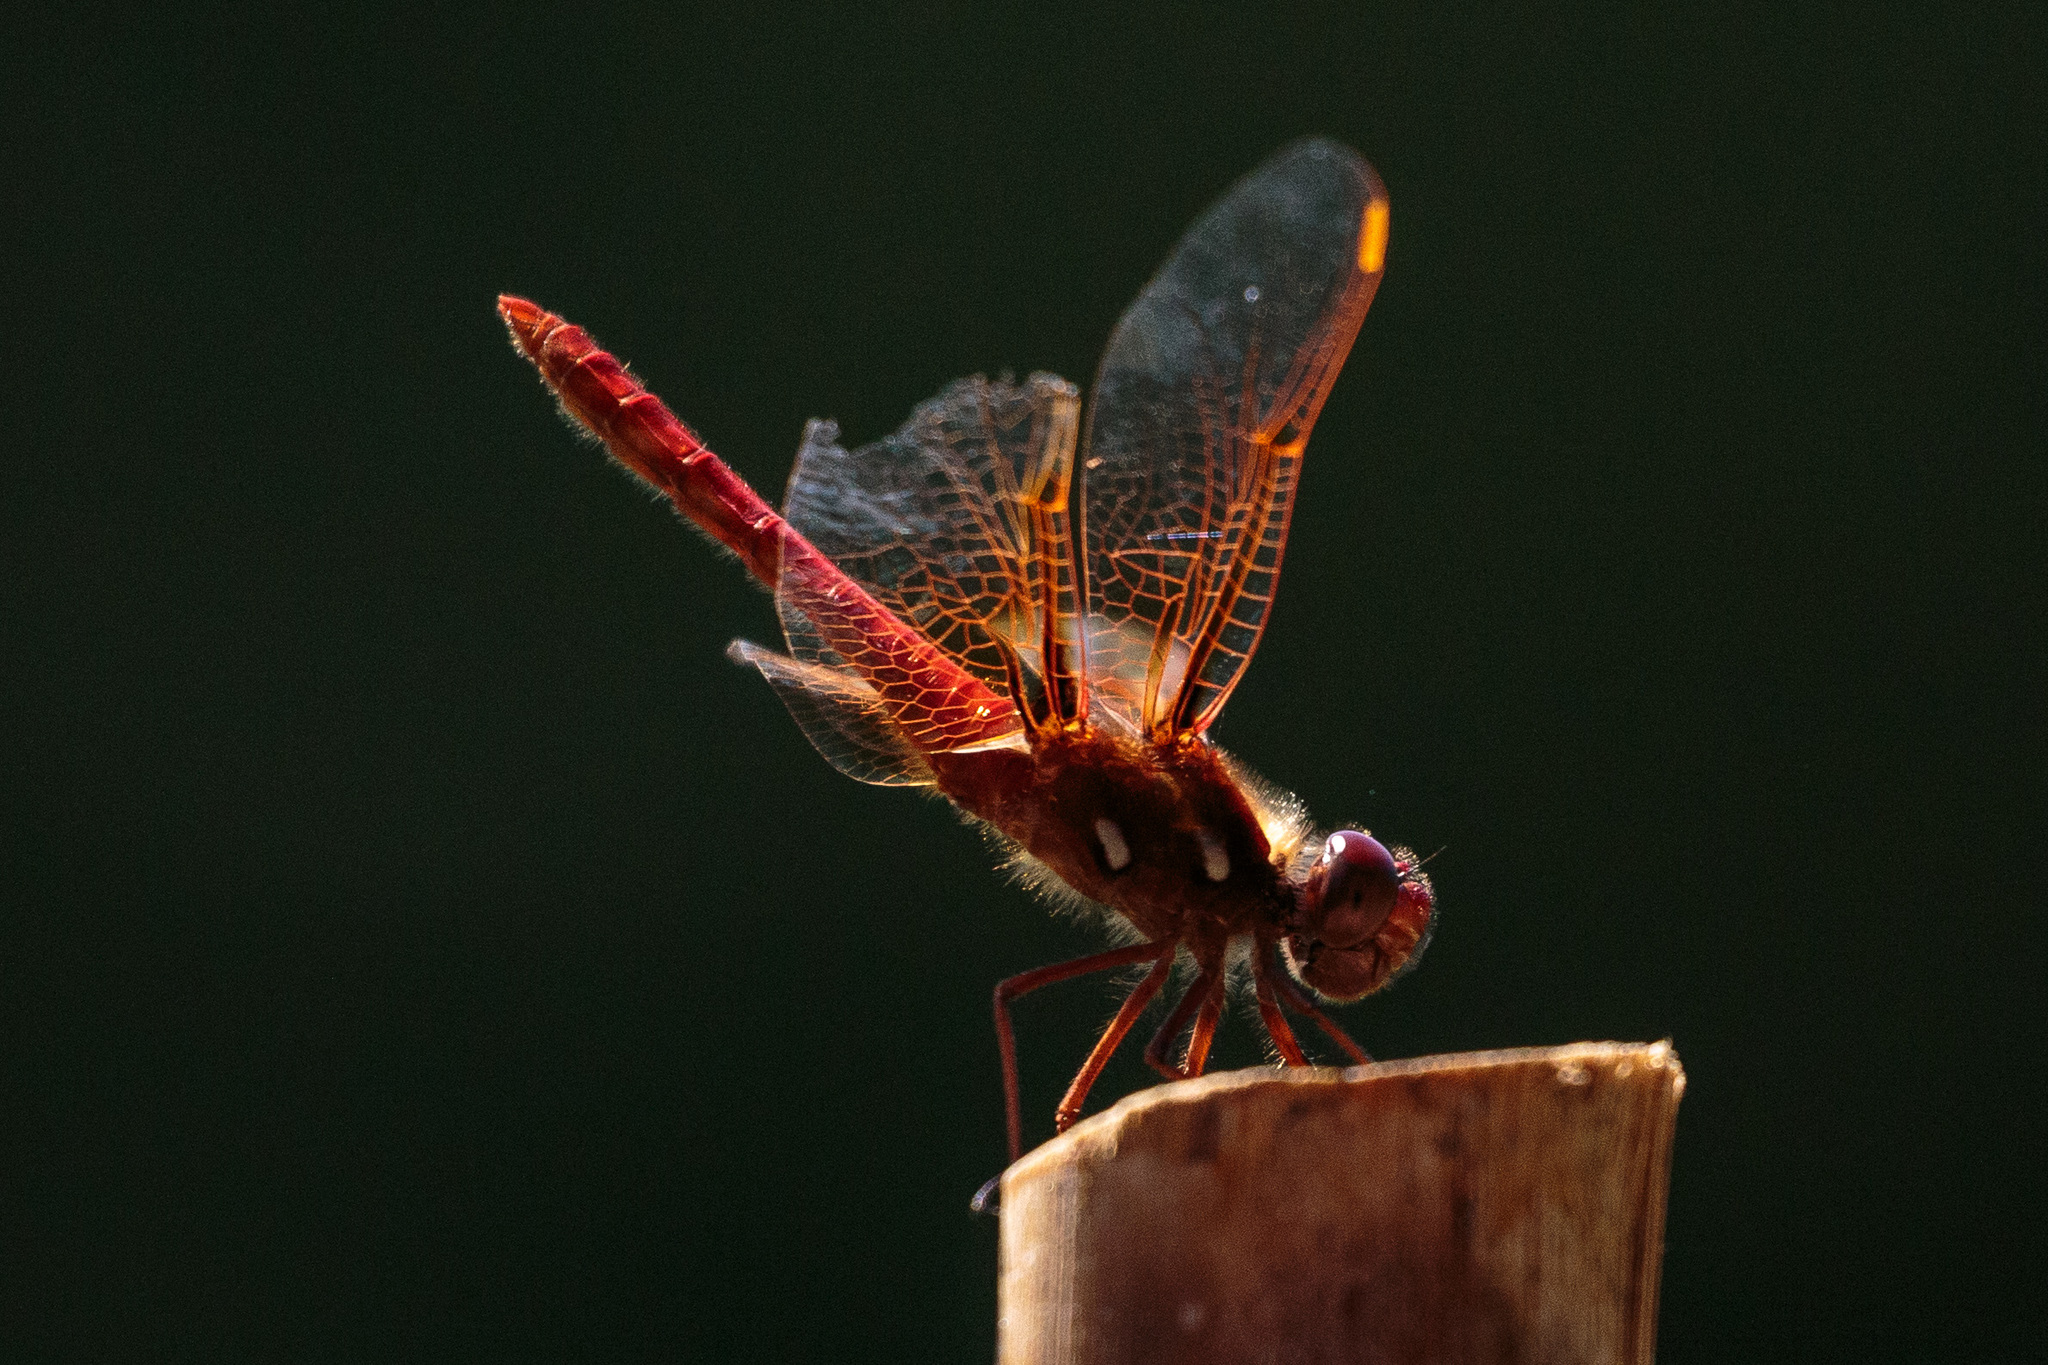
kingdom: Animalia
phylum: Arthropoda
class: Insecta
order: Odonata
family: Libellulidae
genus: Sympetrum
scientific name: Sympetrum illotum
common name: Cardinal meadowhawk
